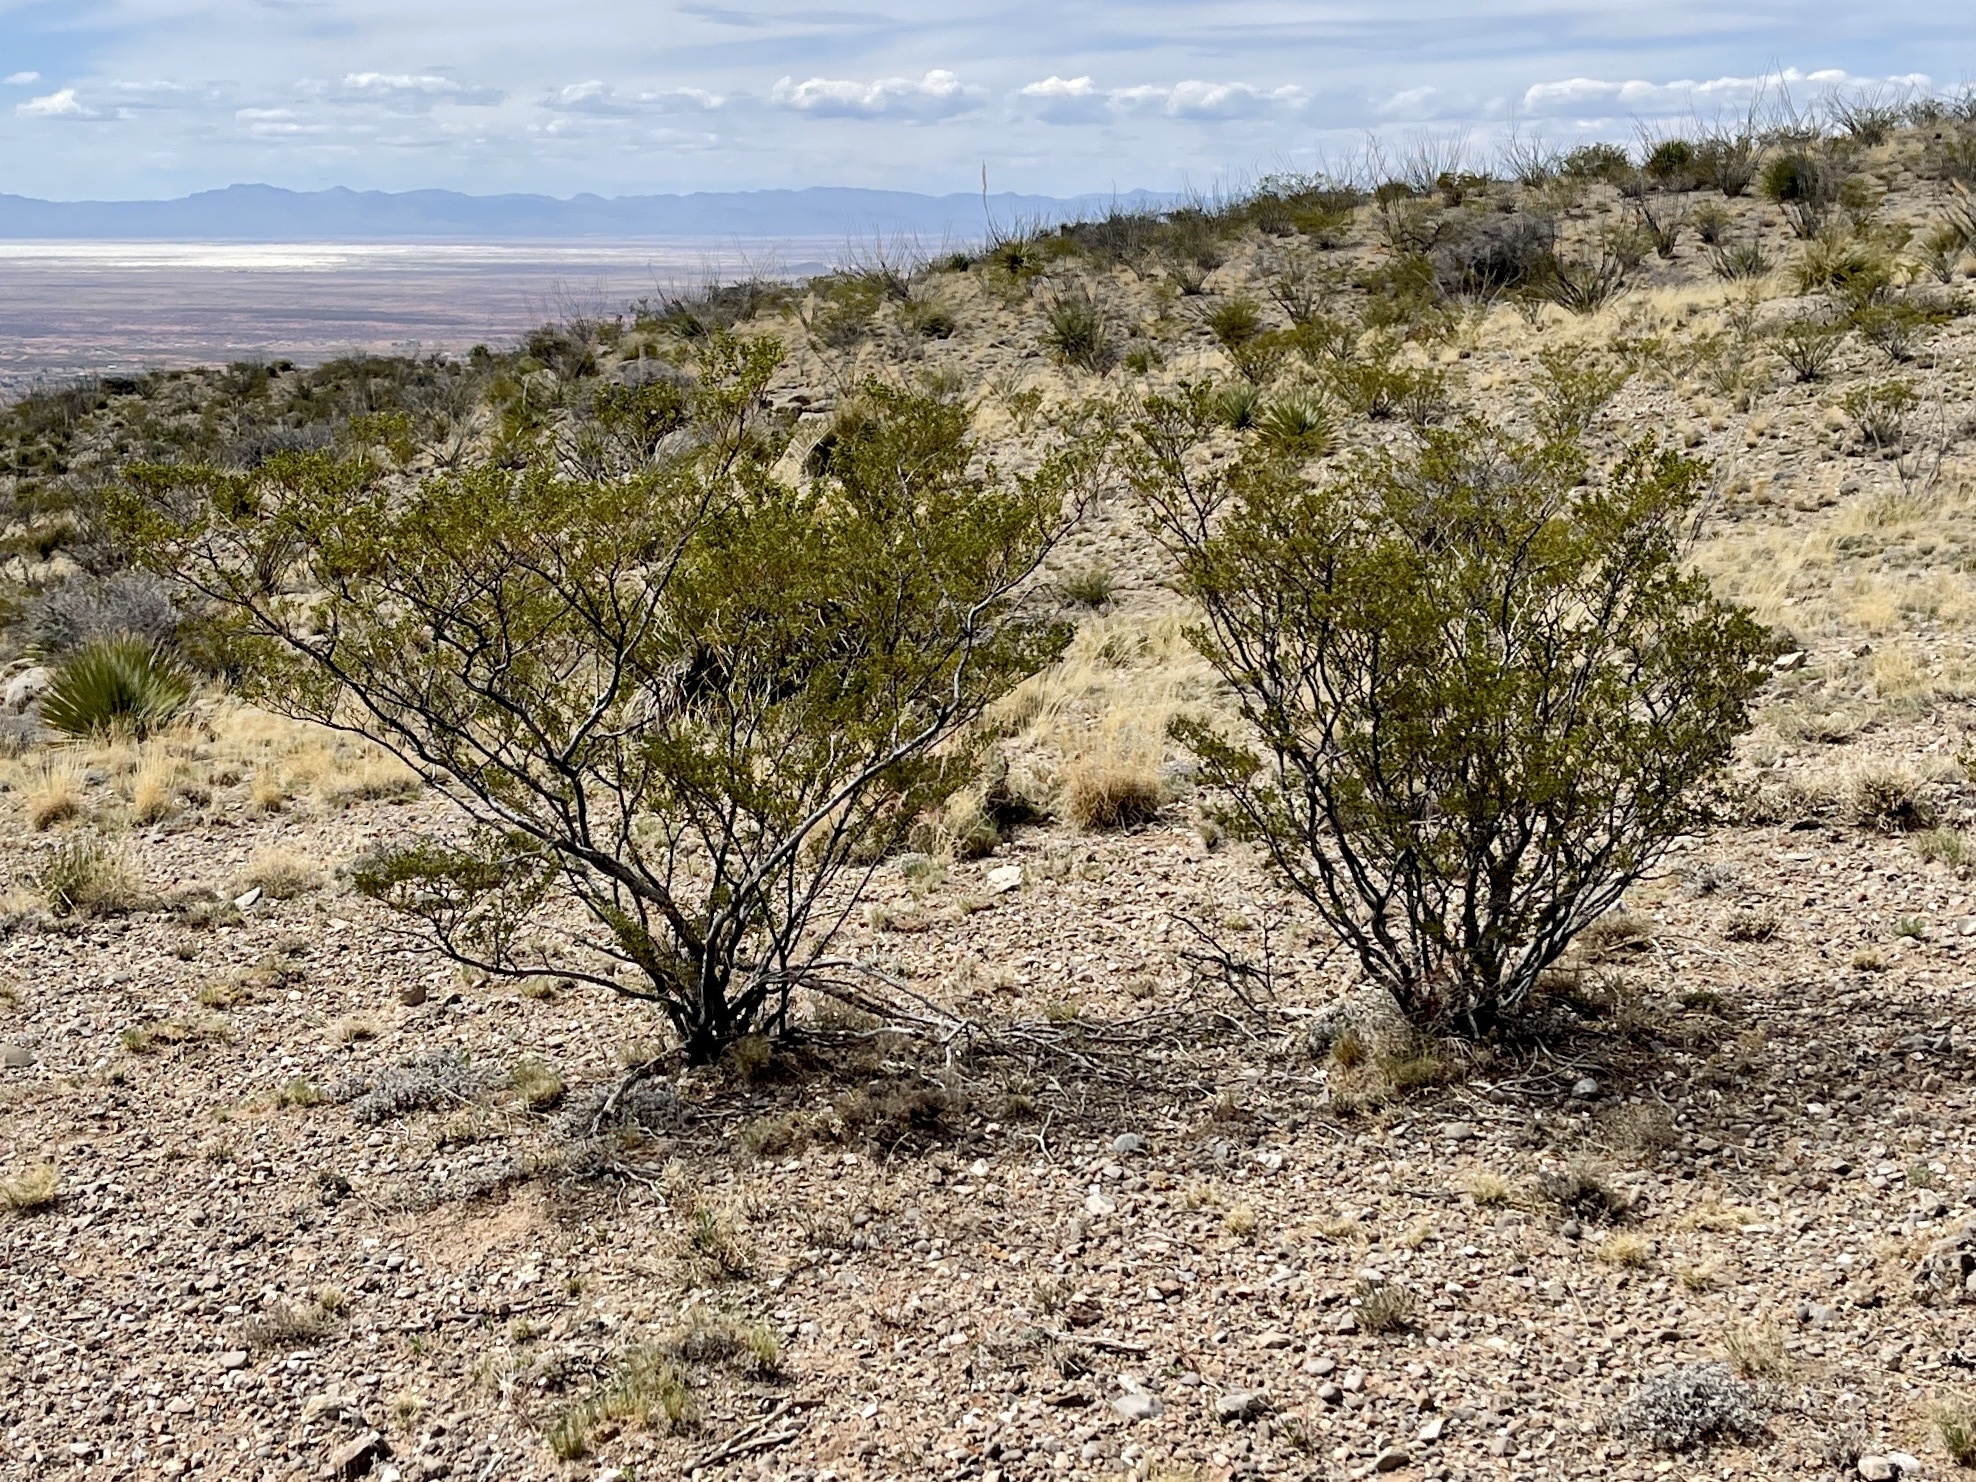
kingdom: Plantae
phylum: Tracheophyta
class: Magnoliopsida
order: Zygophyllales
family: Zygophyllaceae
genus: Larrea
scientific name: Larrea tridentata
